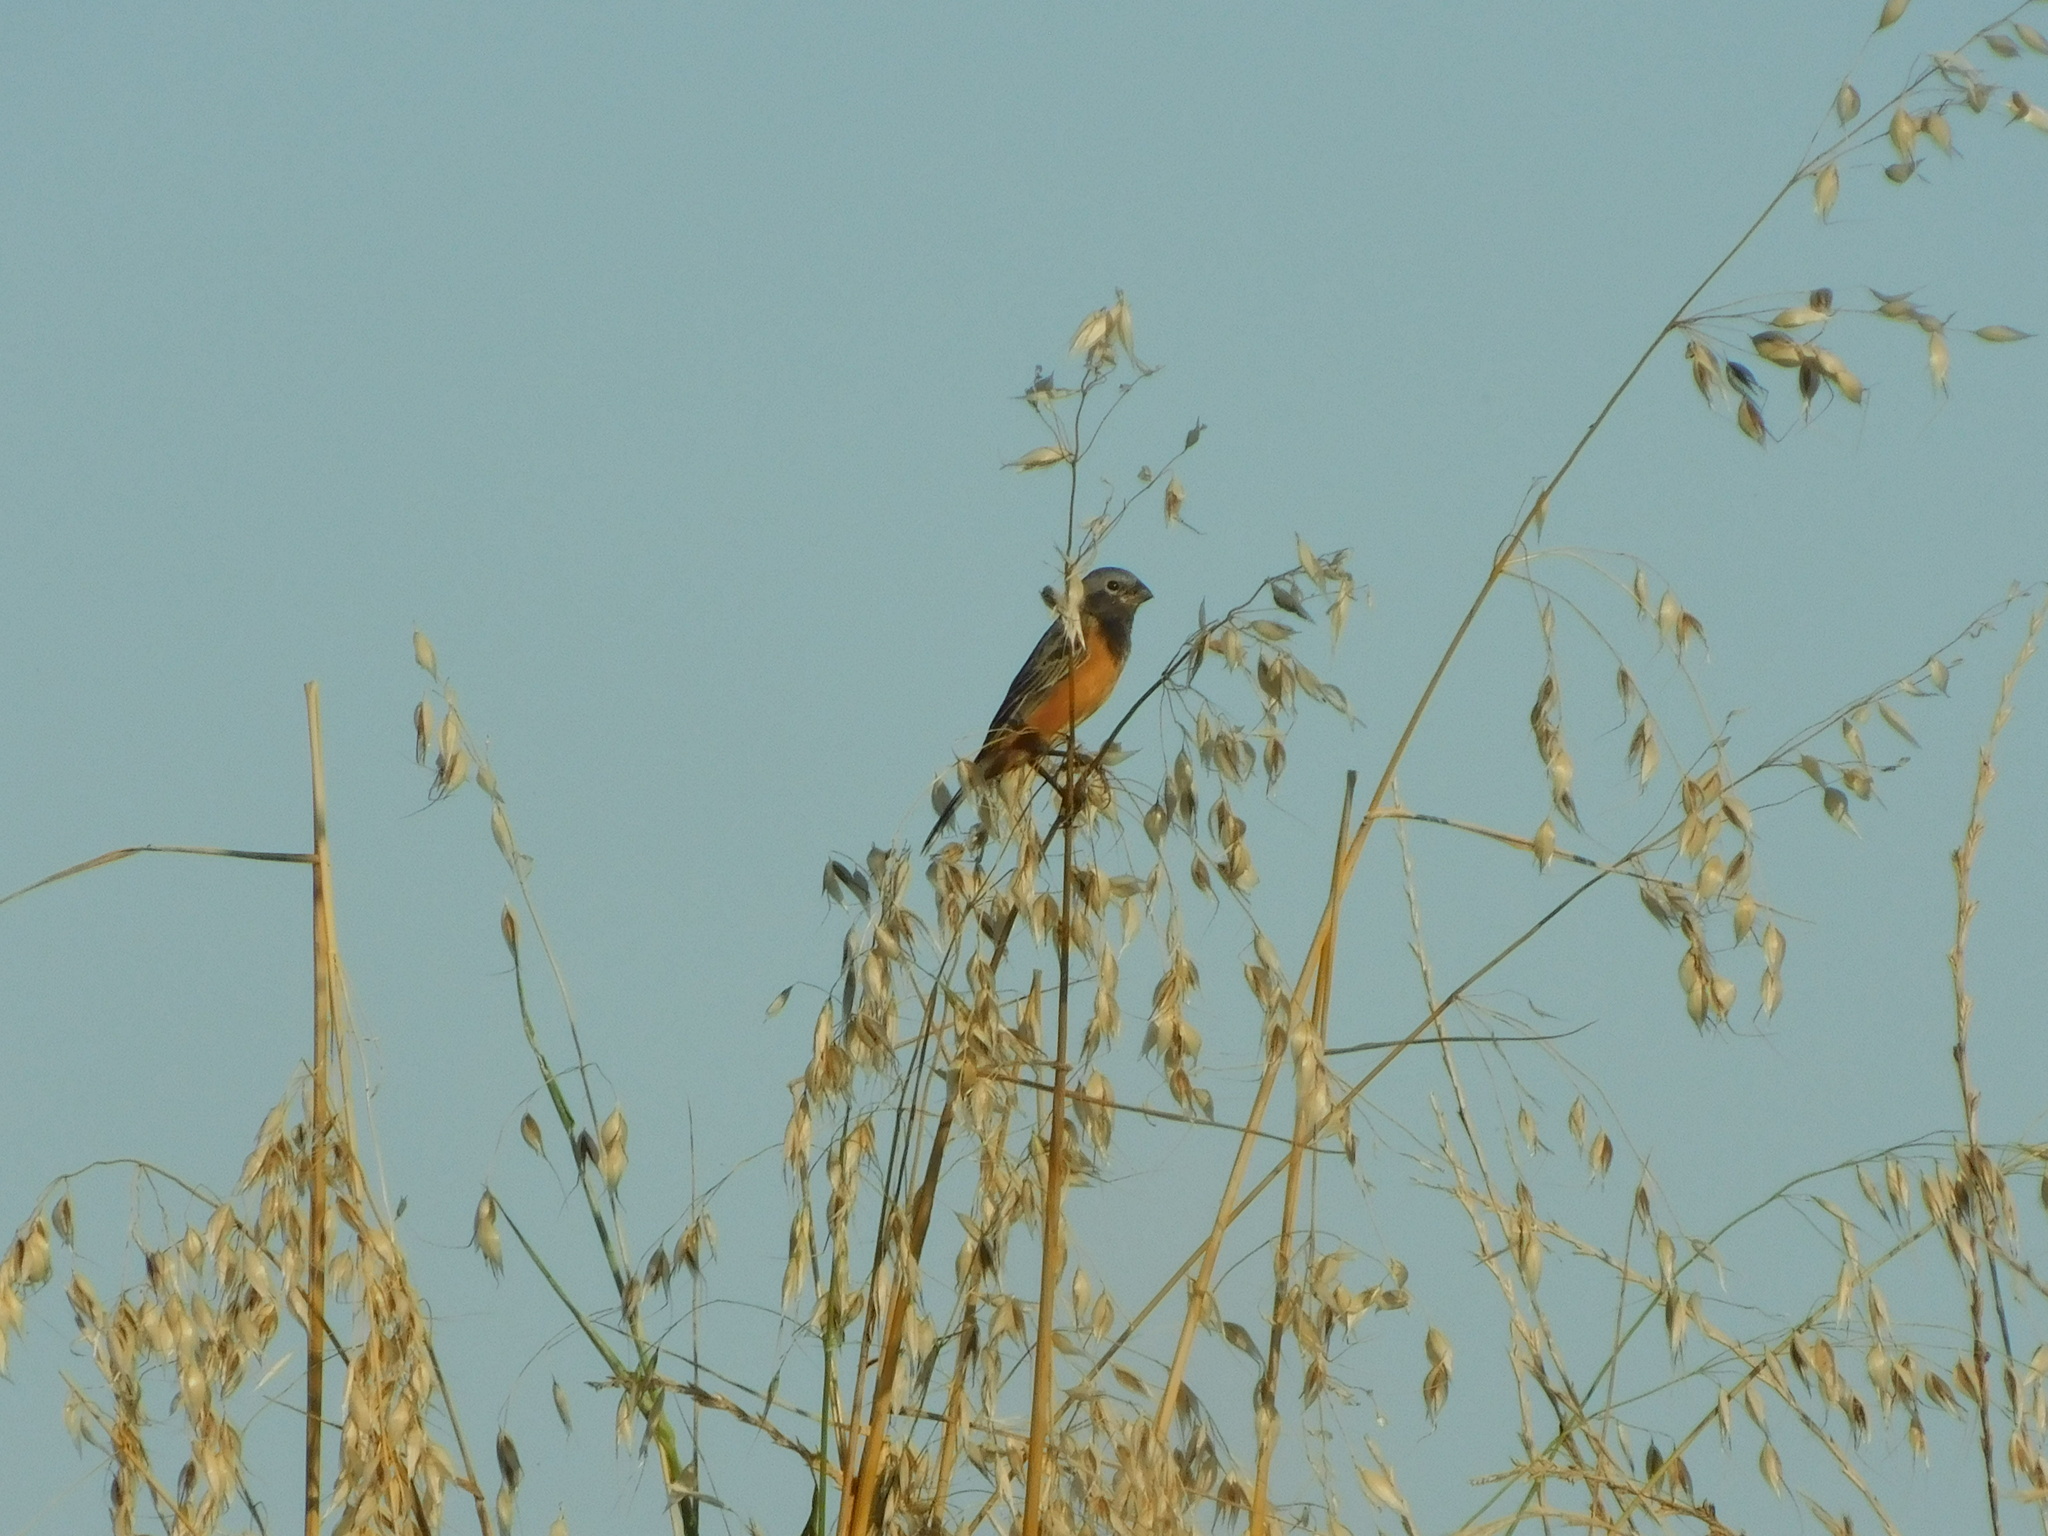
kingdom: Animalia
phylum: Chordata
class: Aves
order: Passeriformes
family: Thraupidae
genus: Sporophila
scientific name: Sporophila ruficollis
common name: Dark-throated seedeater
